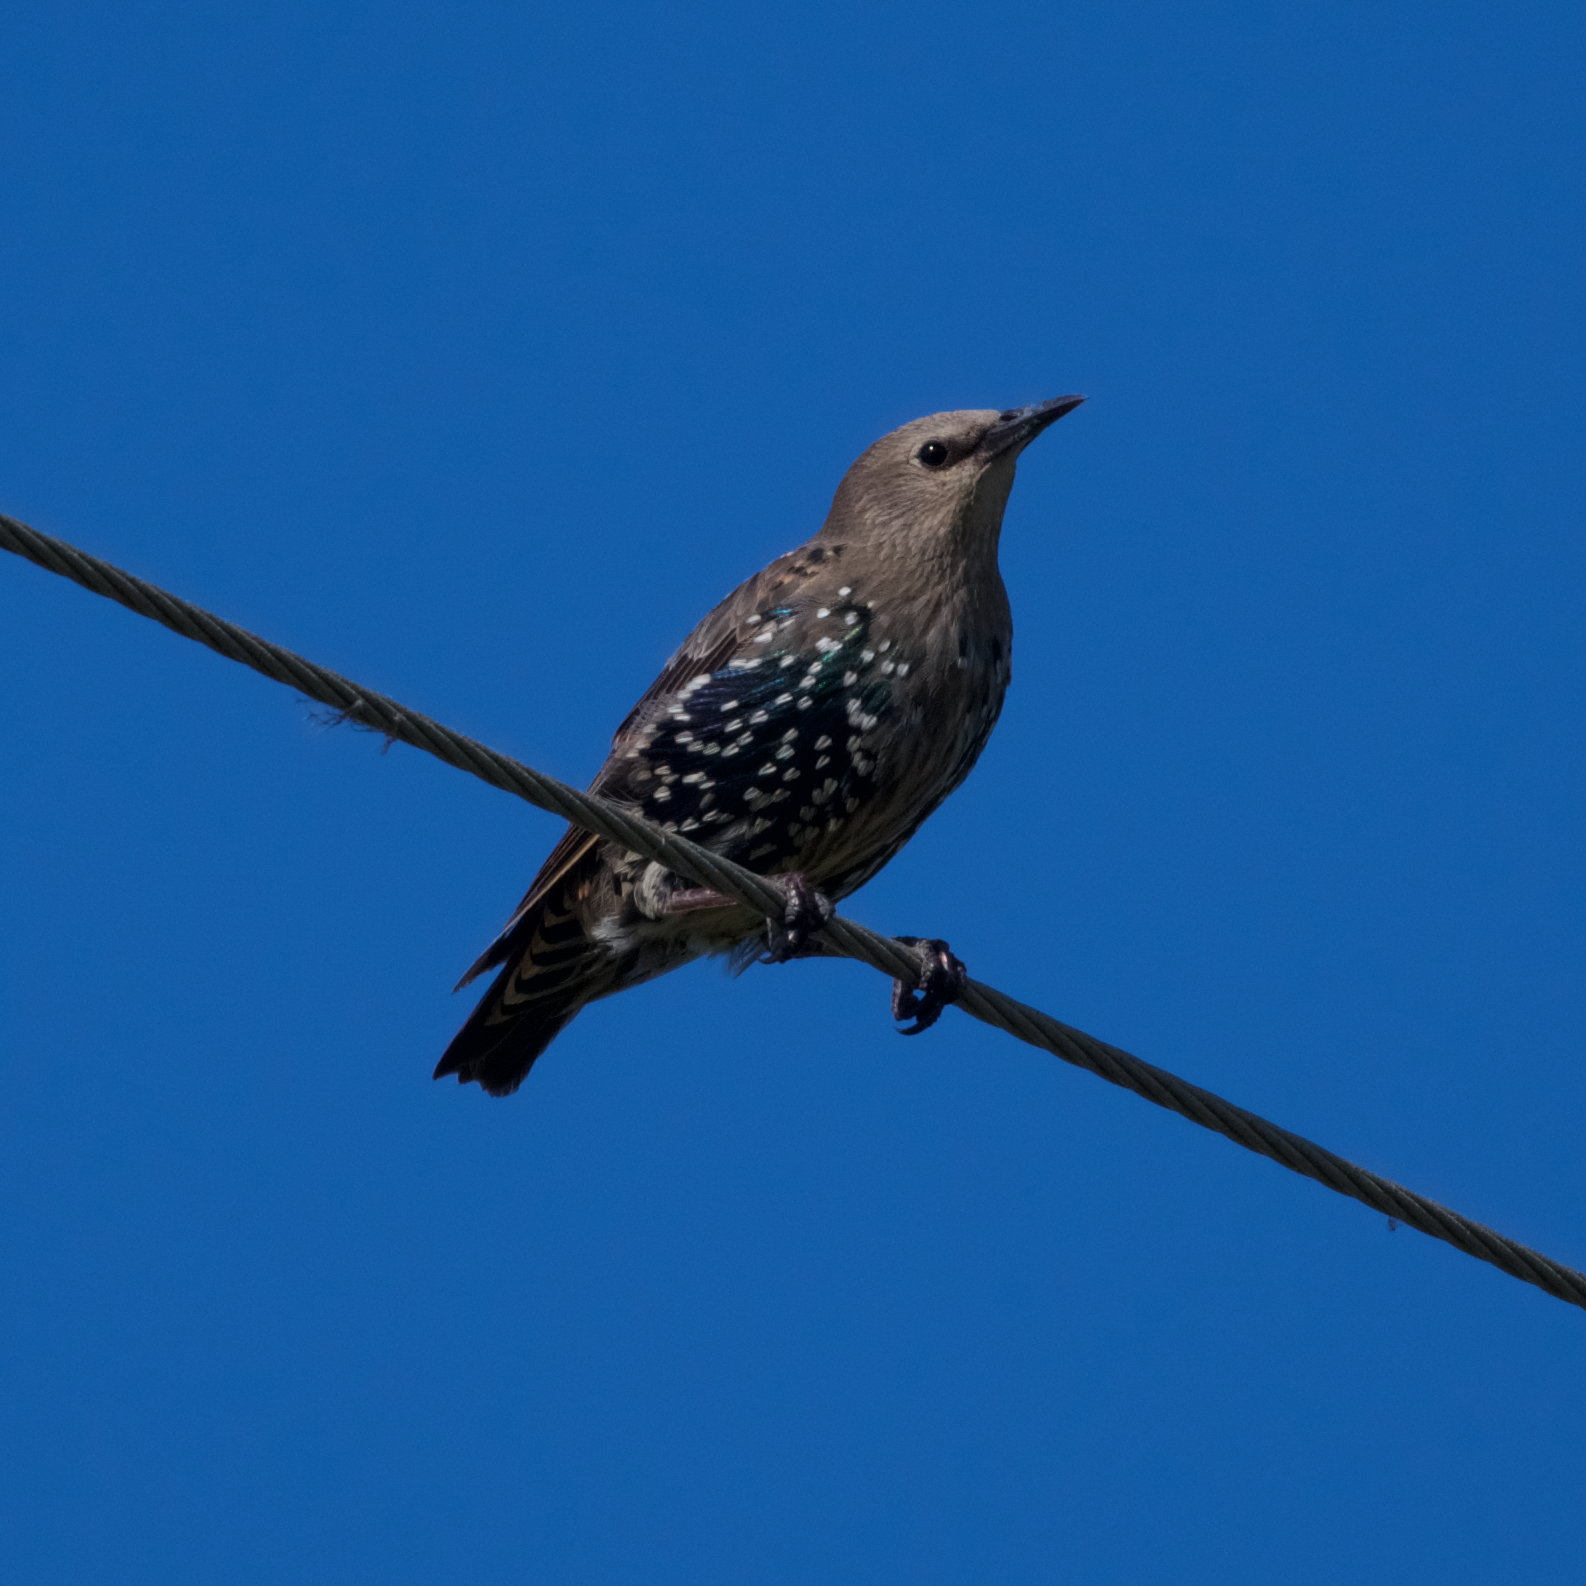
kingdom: Animalia
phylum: Chordata
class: Aves
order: Passeriformes
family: Sturnidae
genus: Sturnus
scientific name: Sturnus vulgaris
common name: Common starling
